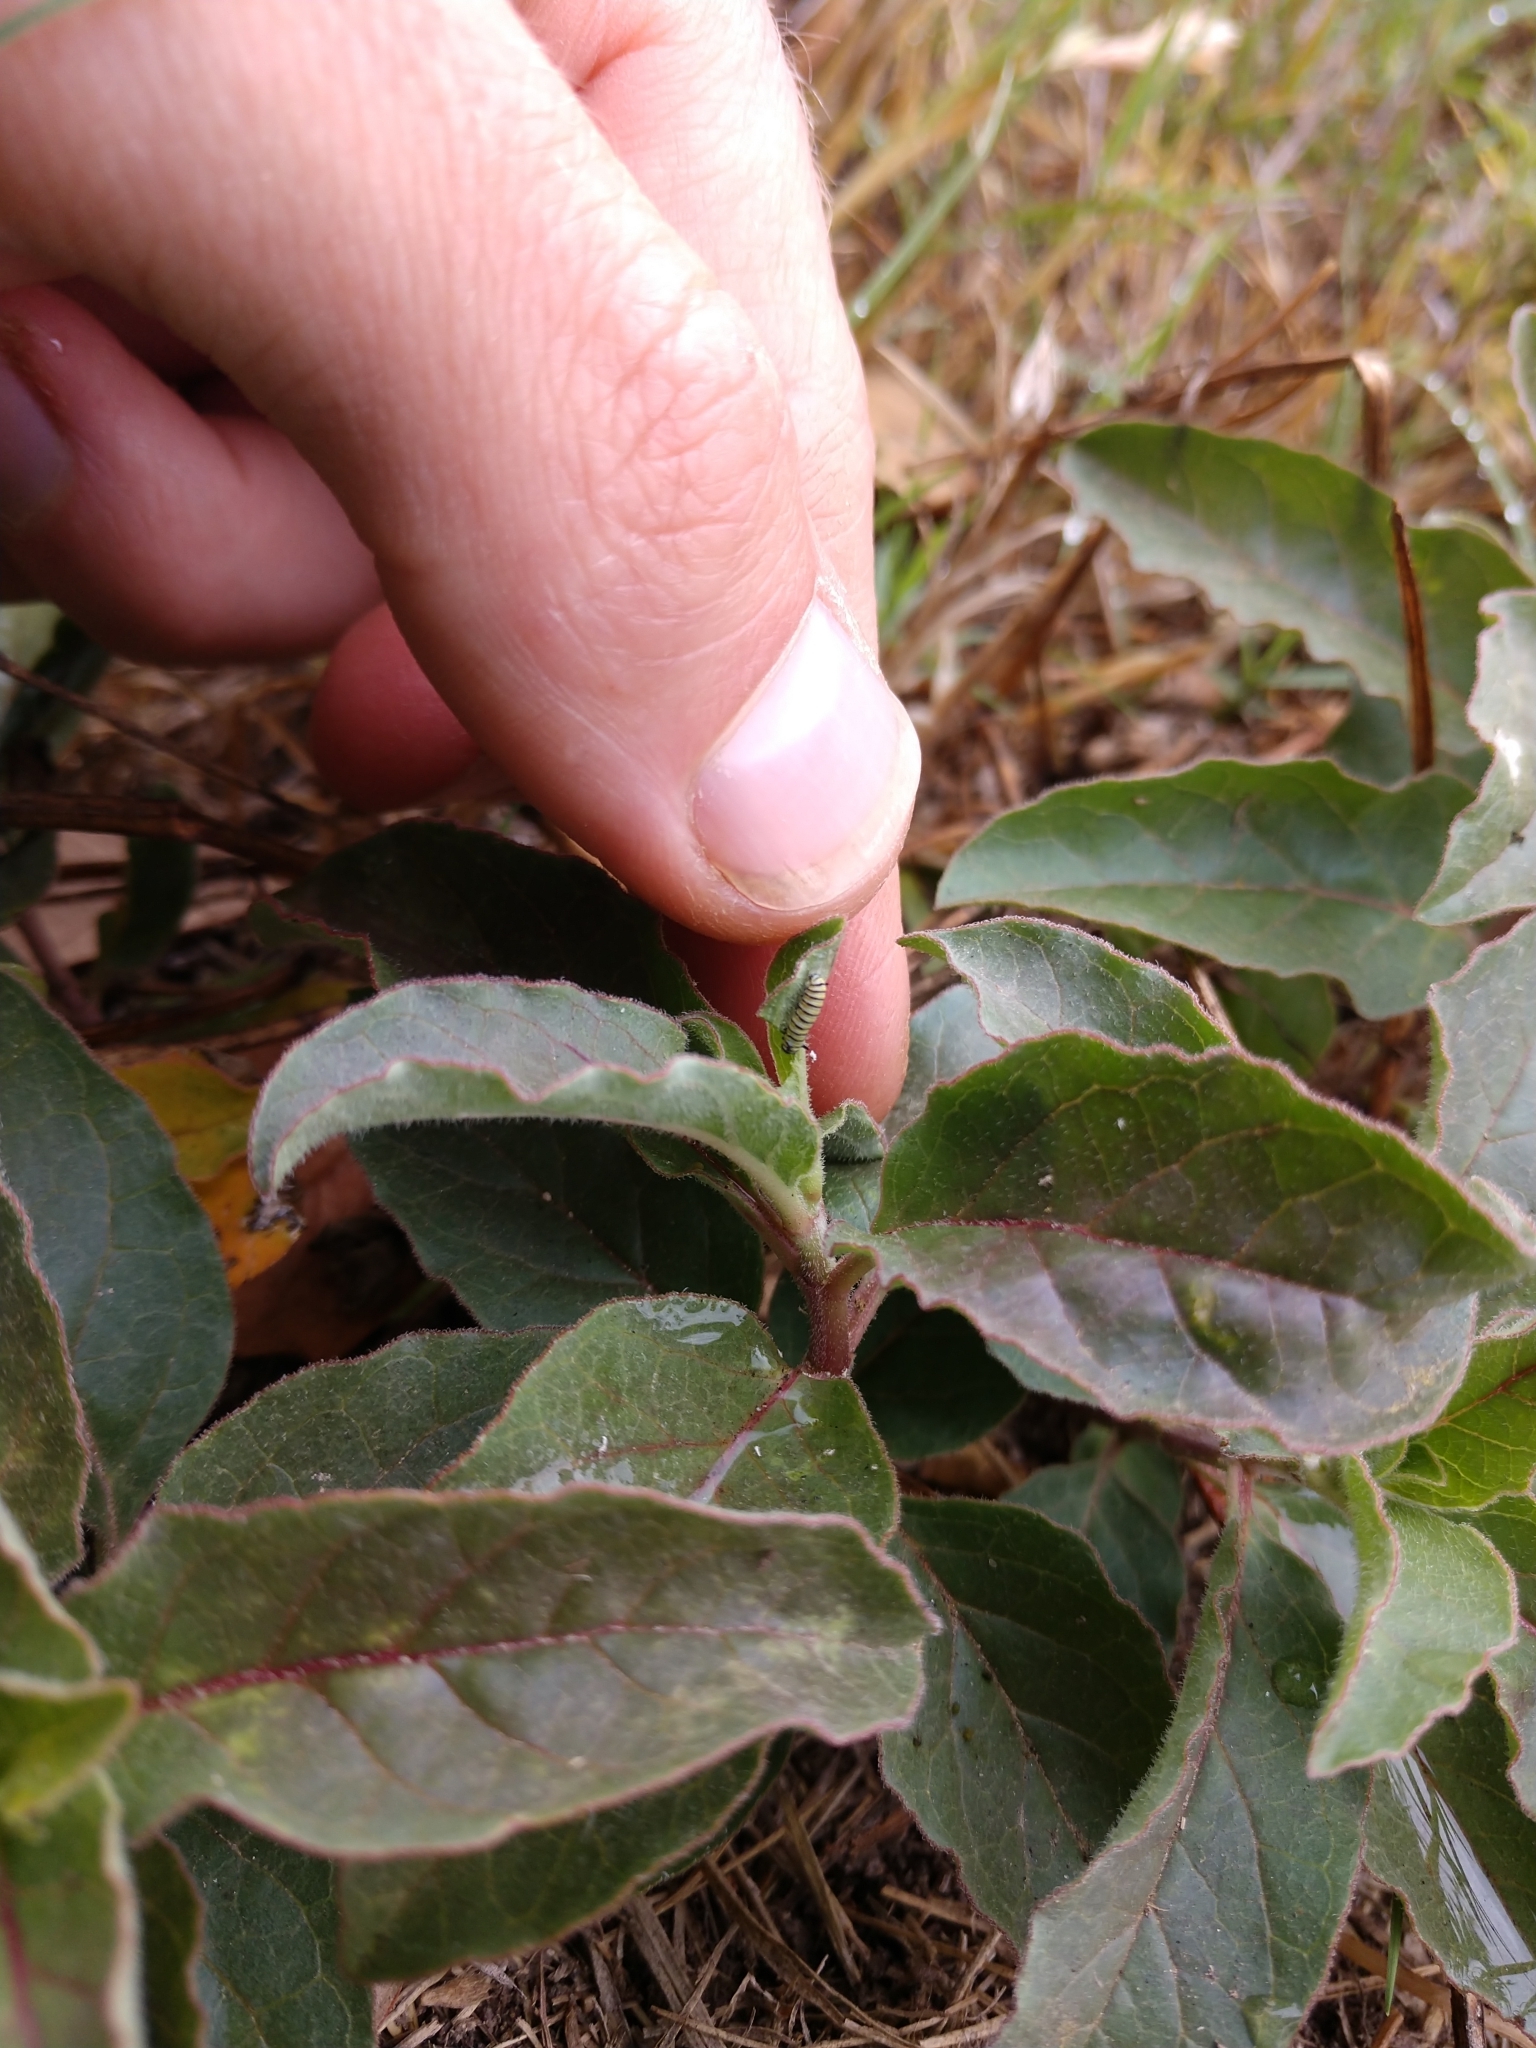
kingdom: Animalia
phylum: Arthropoda
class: Insecta
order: Lepidoptera
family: Nymphalidae
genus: Danaus
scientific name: Danaus plexippus
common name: Monarch
